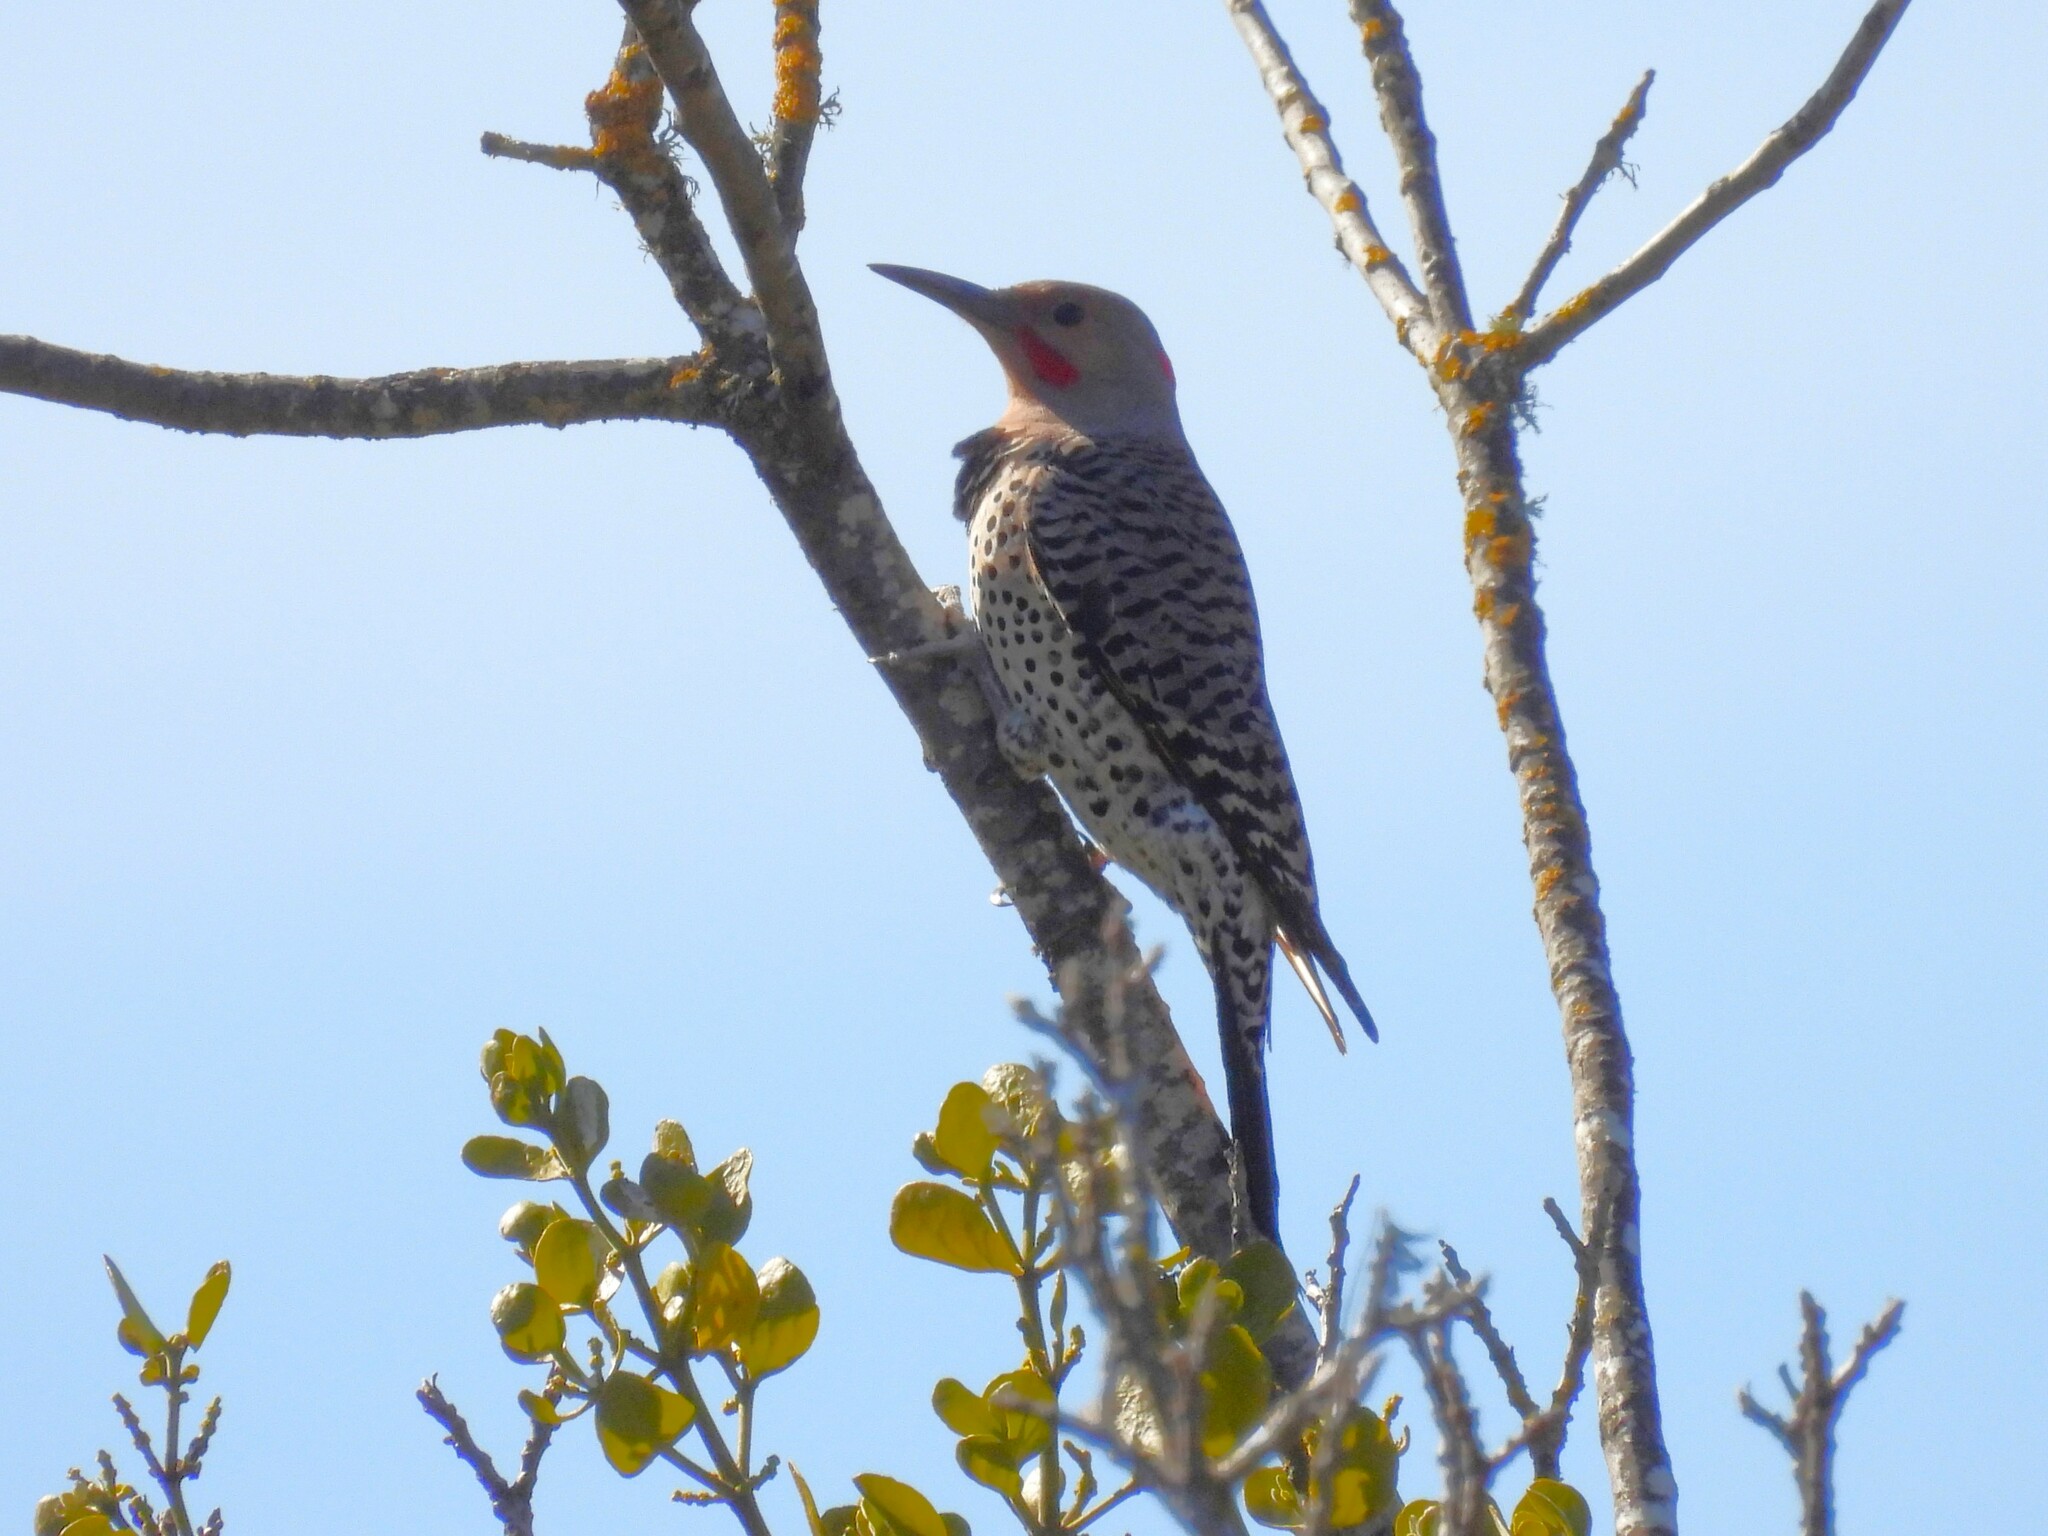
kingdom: Animalia
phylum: Chordata
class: Aves
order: Piciformes
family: Picidae
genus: Colaptes
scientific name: Colaptes auratus
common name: Northern flicker
